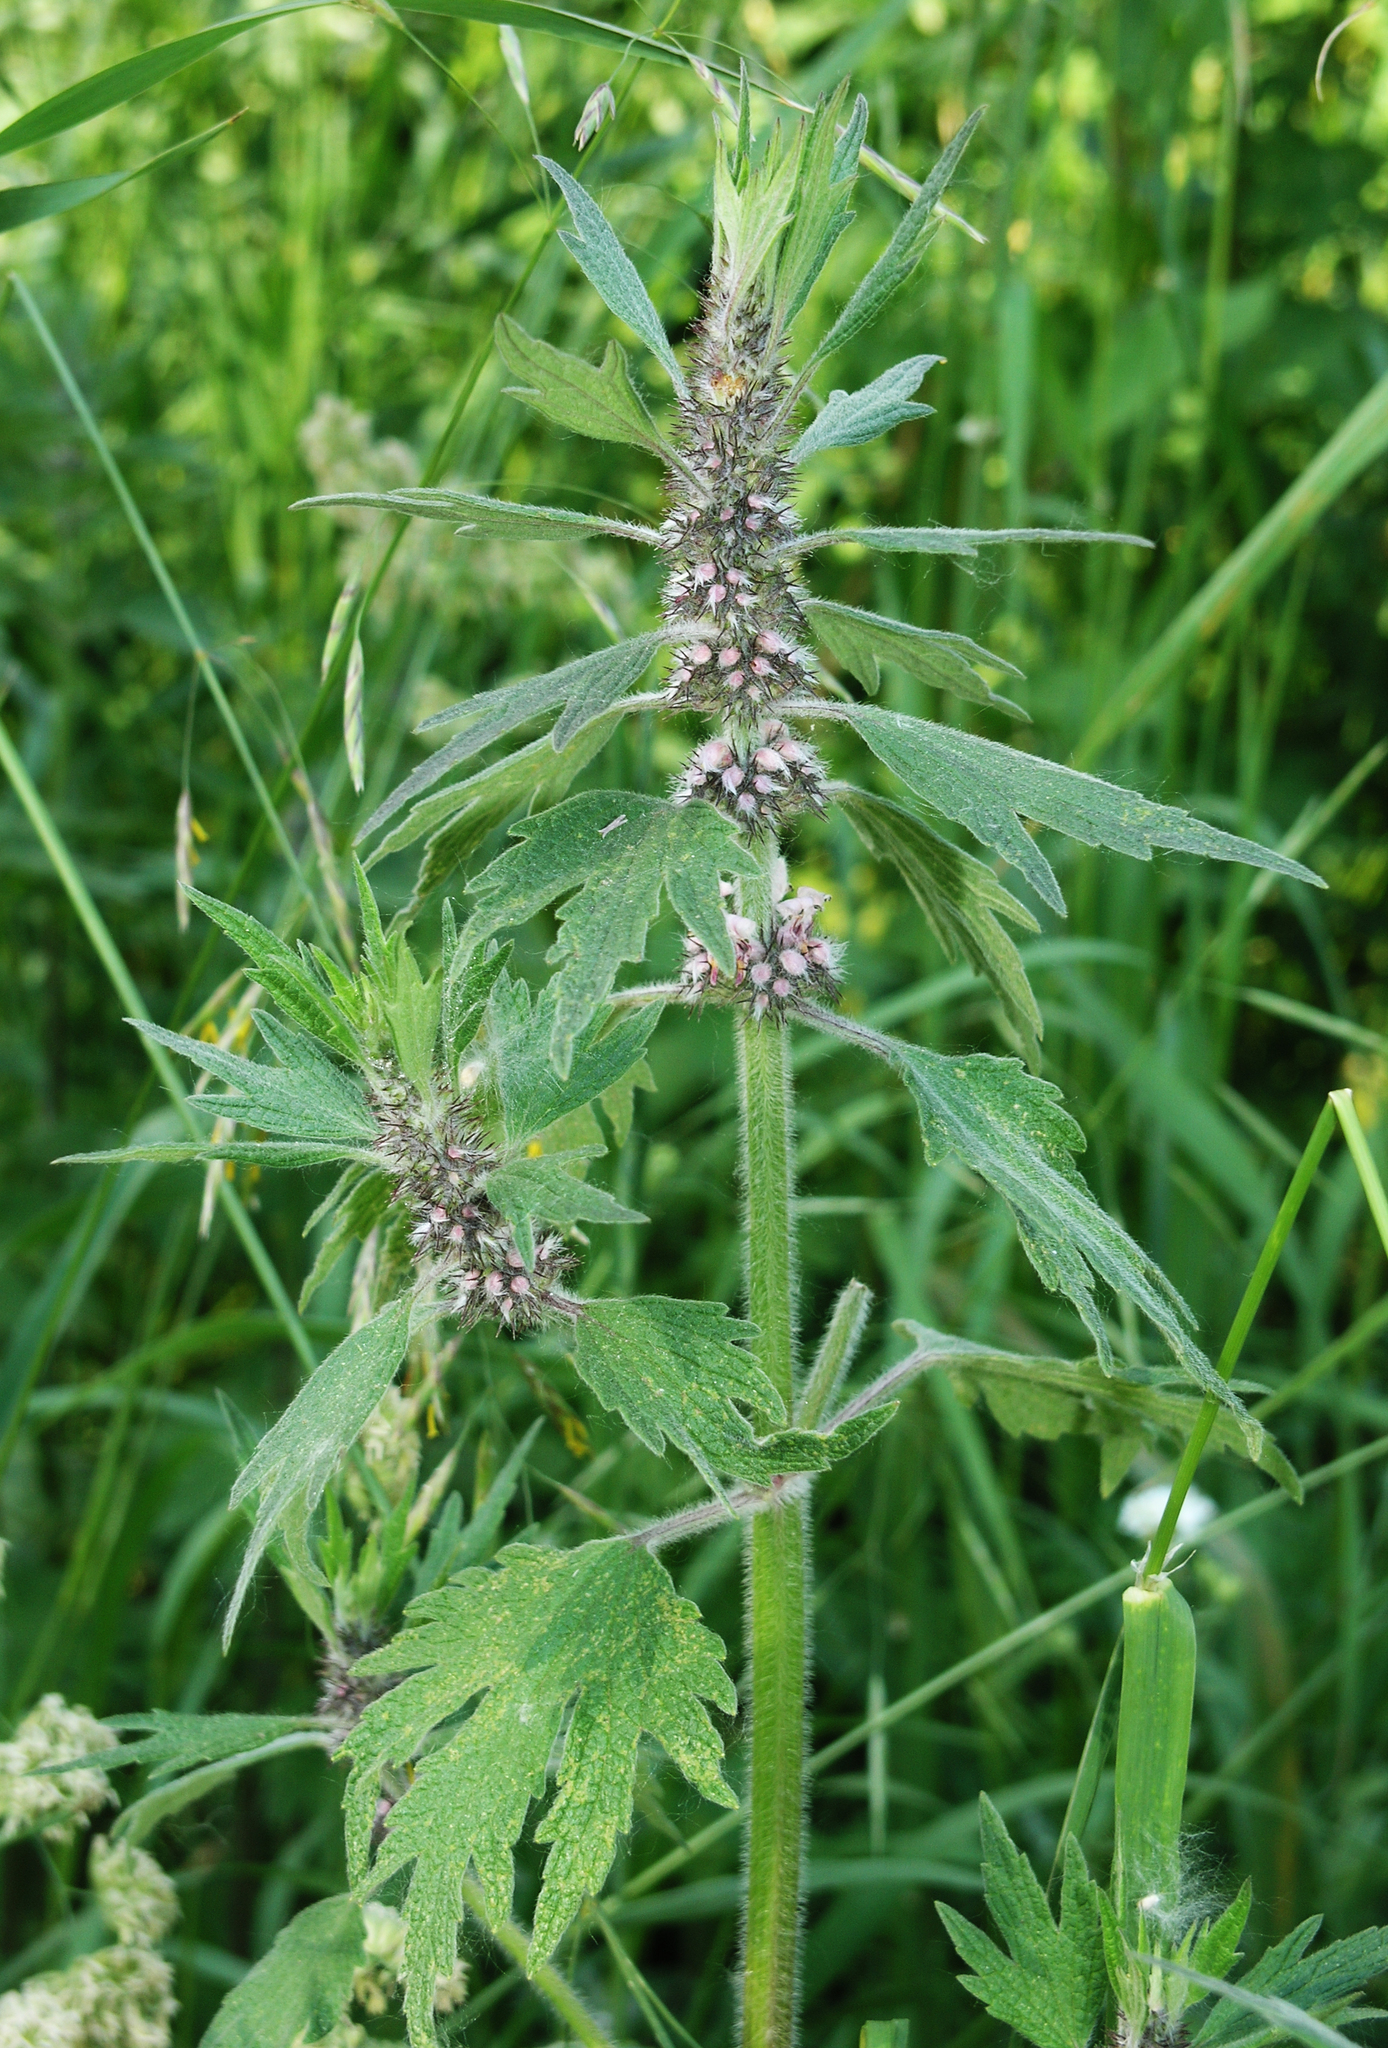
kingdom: Plantae
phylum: Tracheophyta
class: Magnoliopsida
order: Lamiales
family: Lamiaceae
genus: Leonurus
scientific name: Leonurus quinquelobatus
